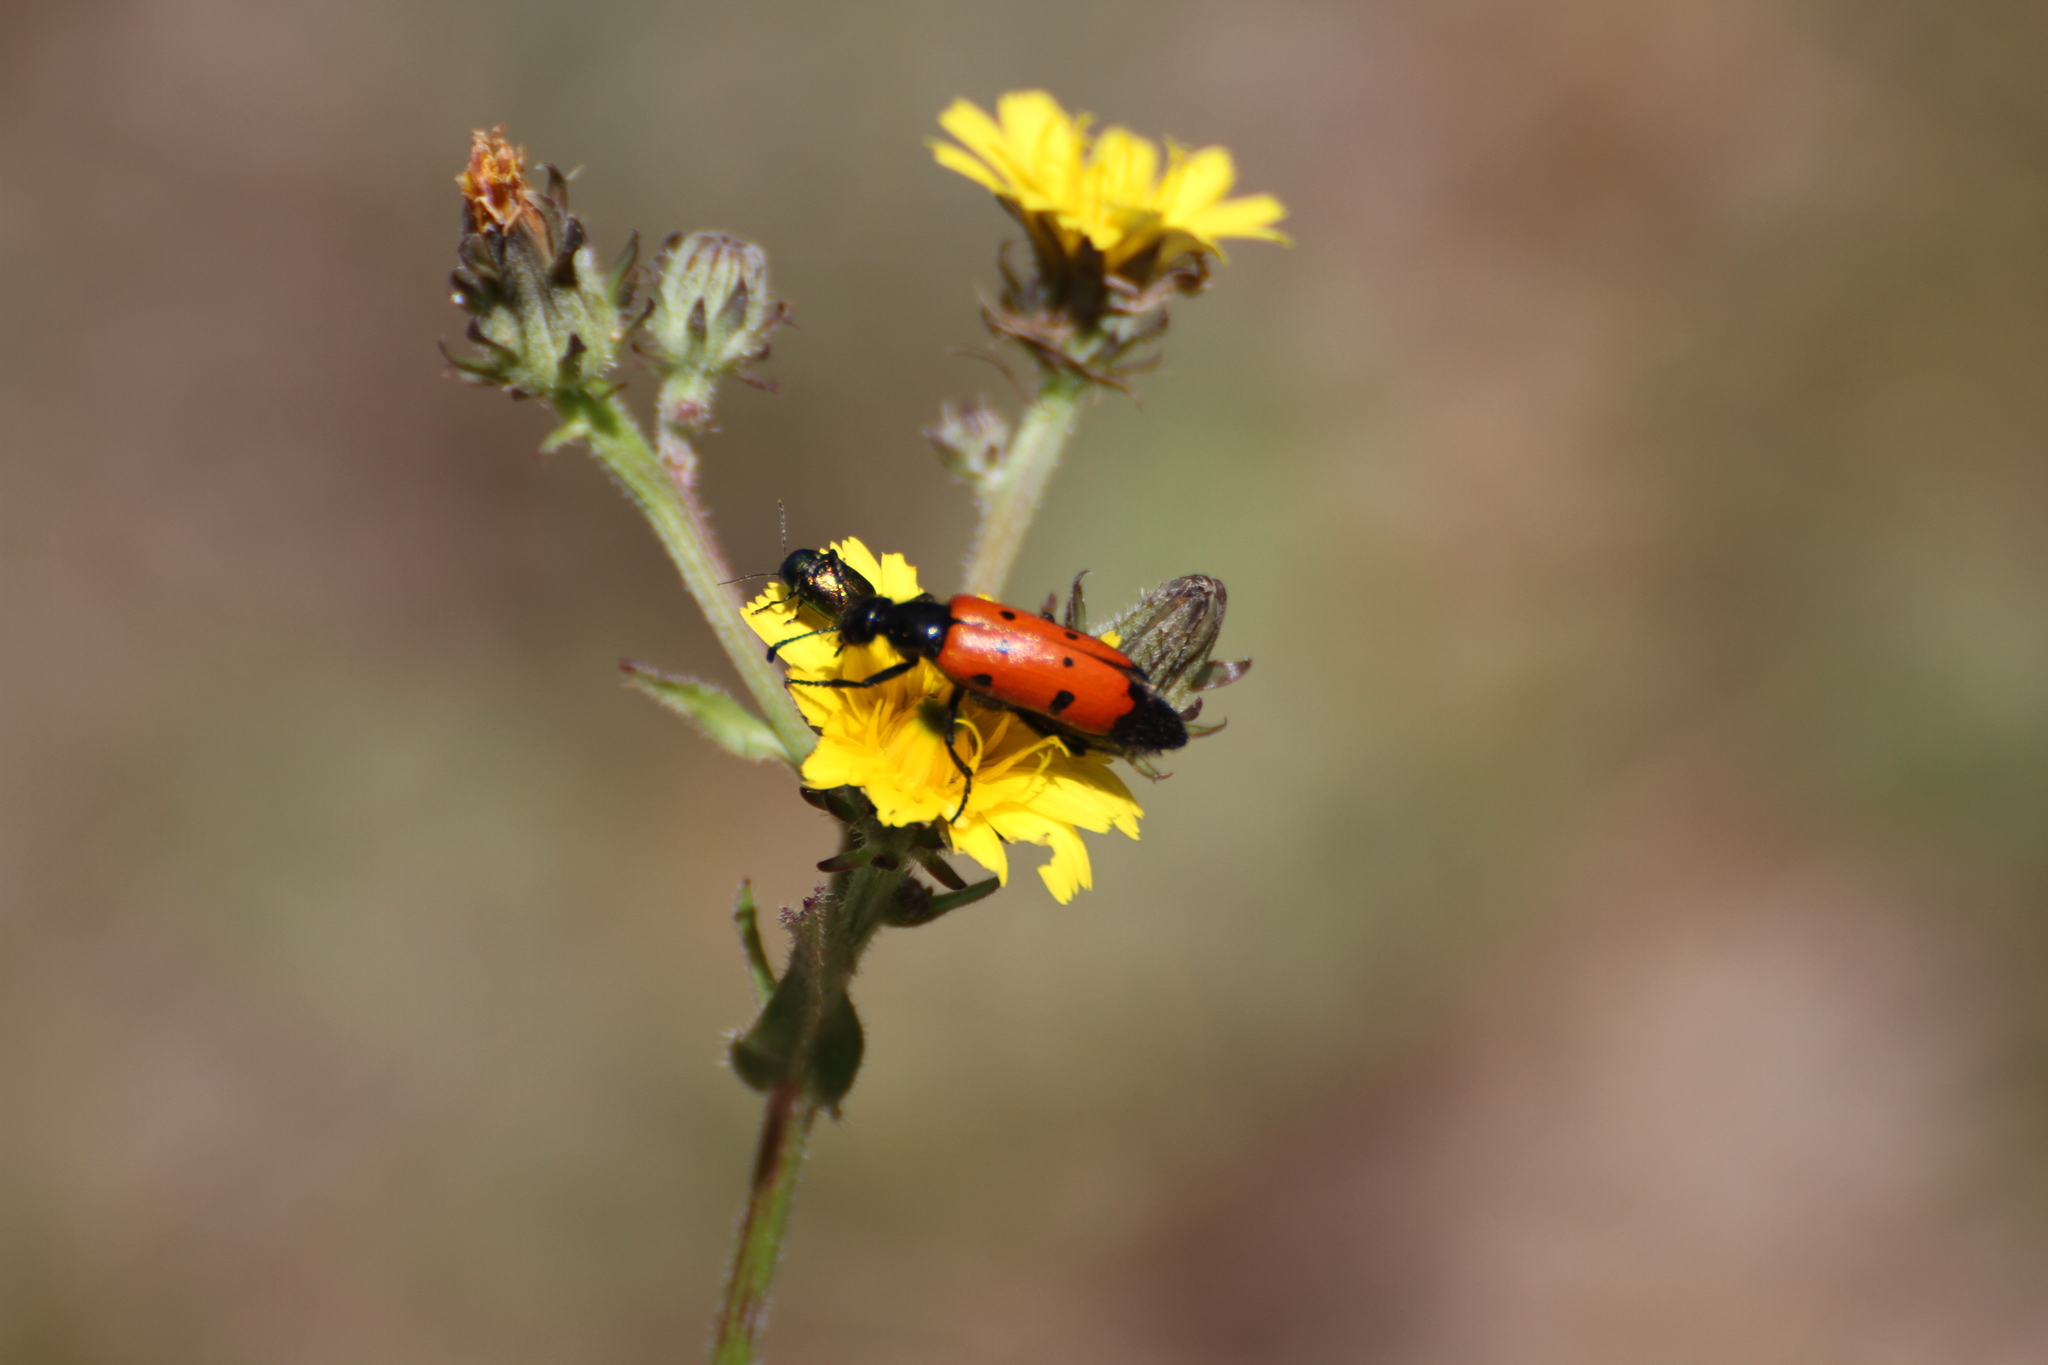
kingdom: Animalia
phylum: Arthropoda
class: Insecta
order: Coleoptera
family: Meloidae
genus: Mylabris
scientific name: Mylabris quadripunctata
